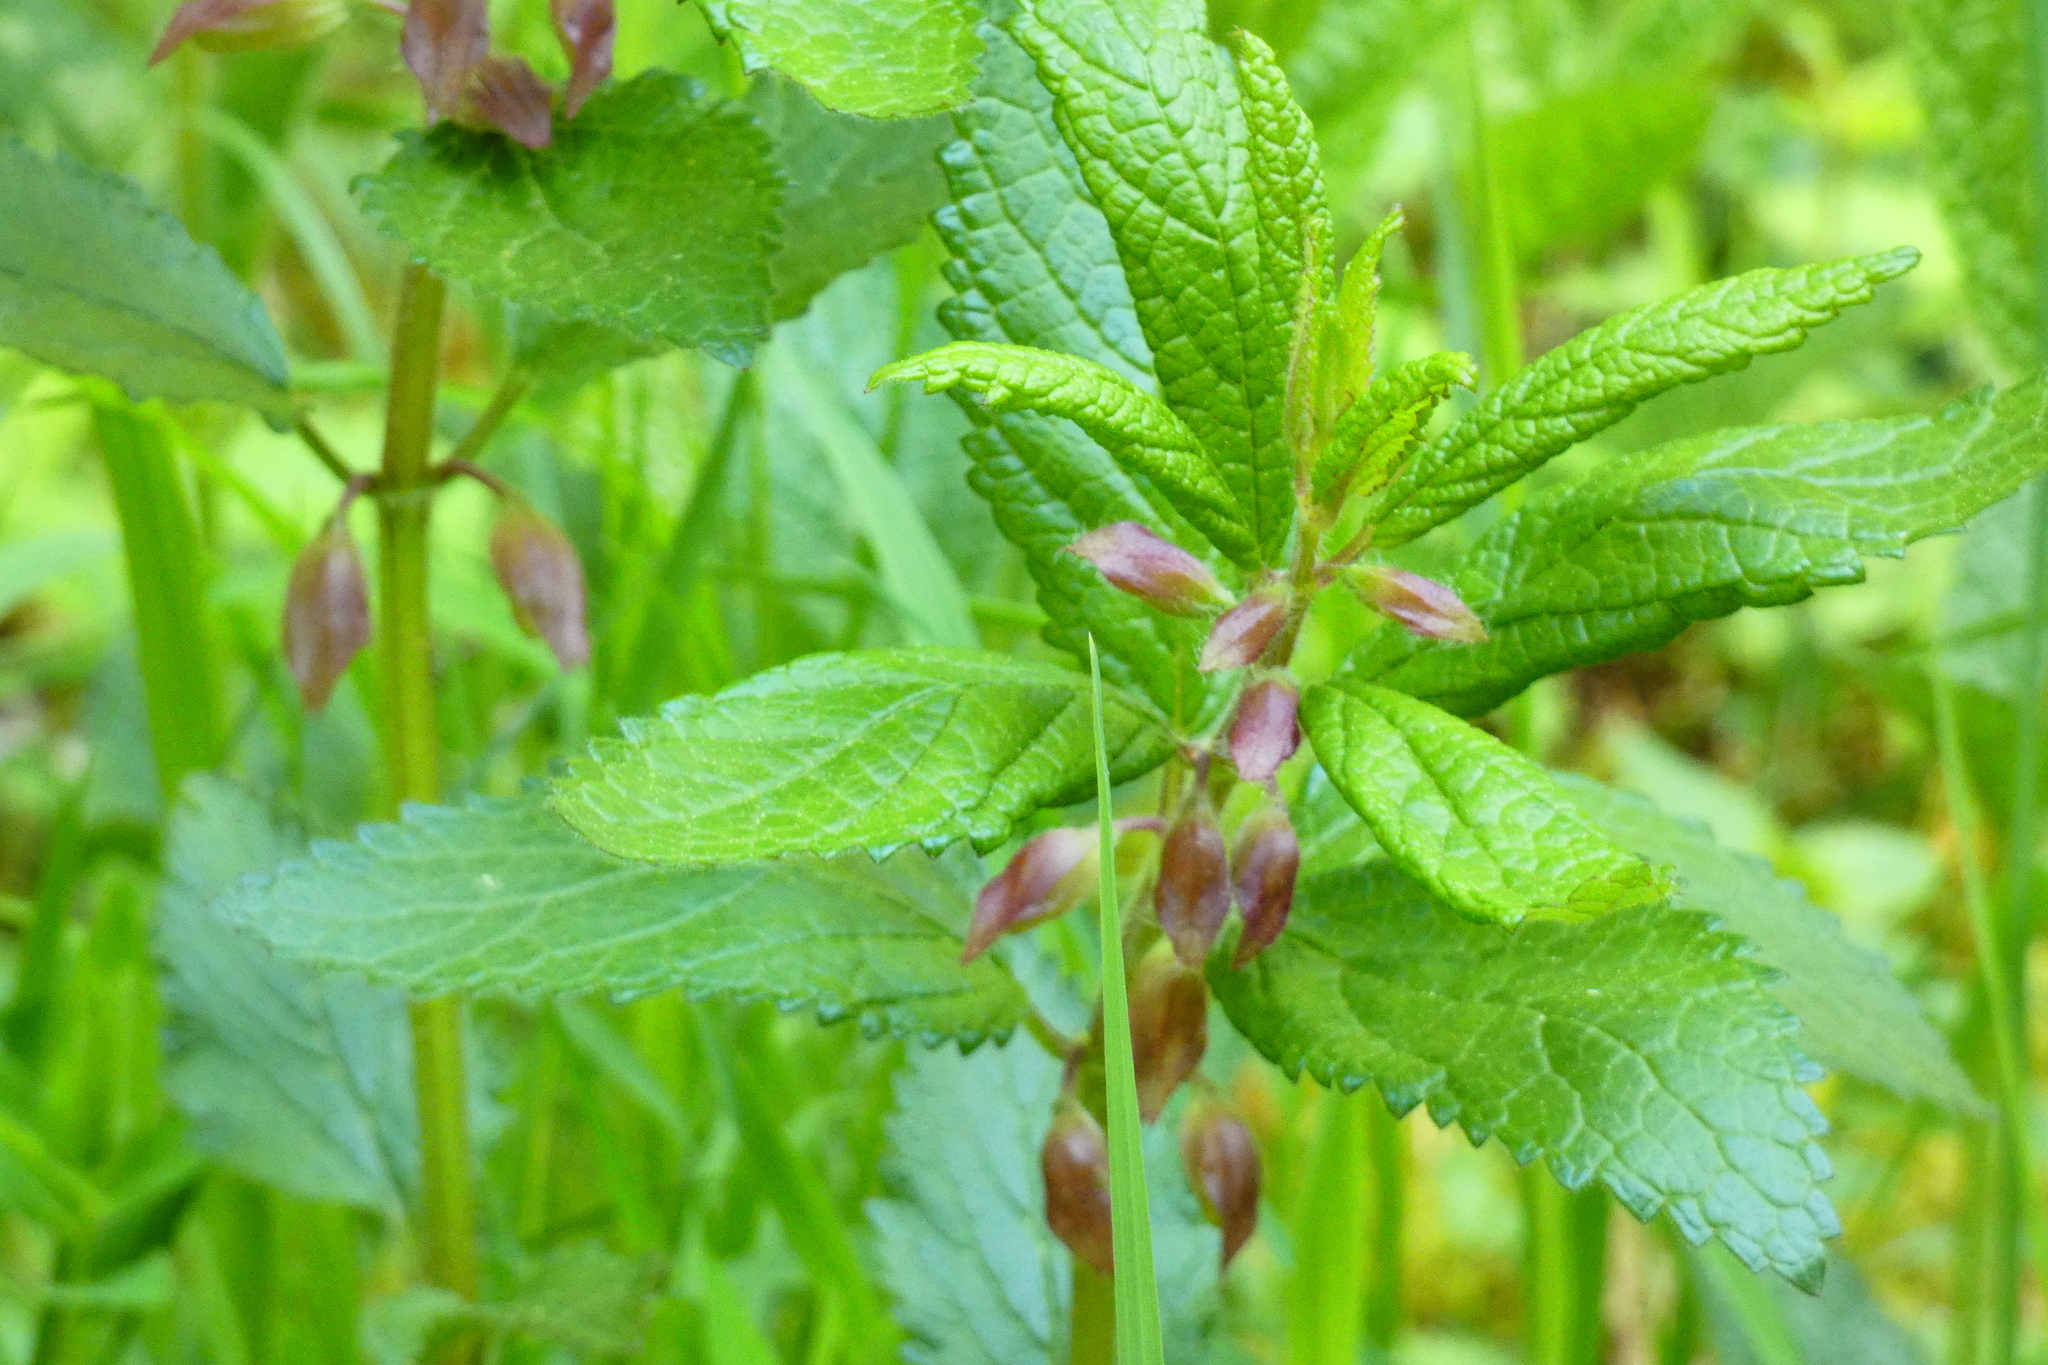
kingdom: Plantae
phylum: Tracheophyta
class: Magnoliopsida
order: Lamiales
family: Lamiaceae
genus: Melittis
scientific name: Melittis melissophyllum
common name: Bastard balm
